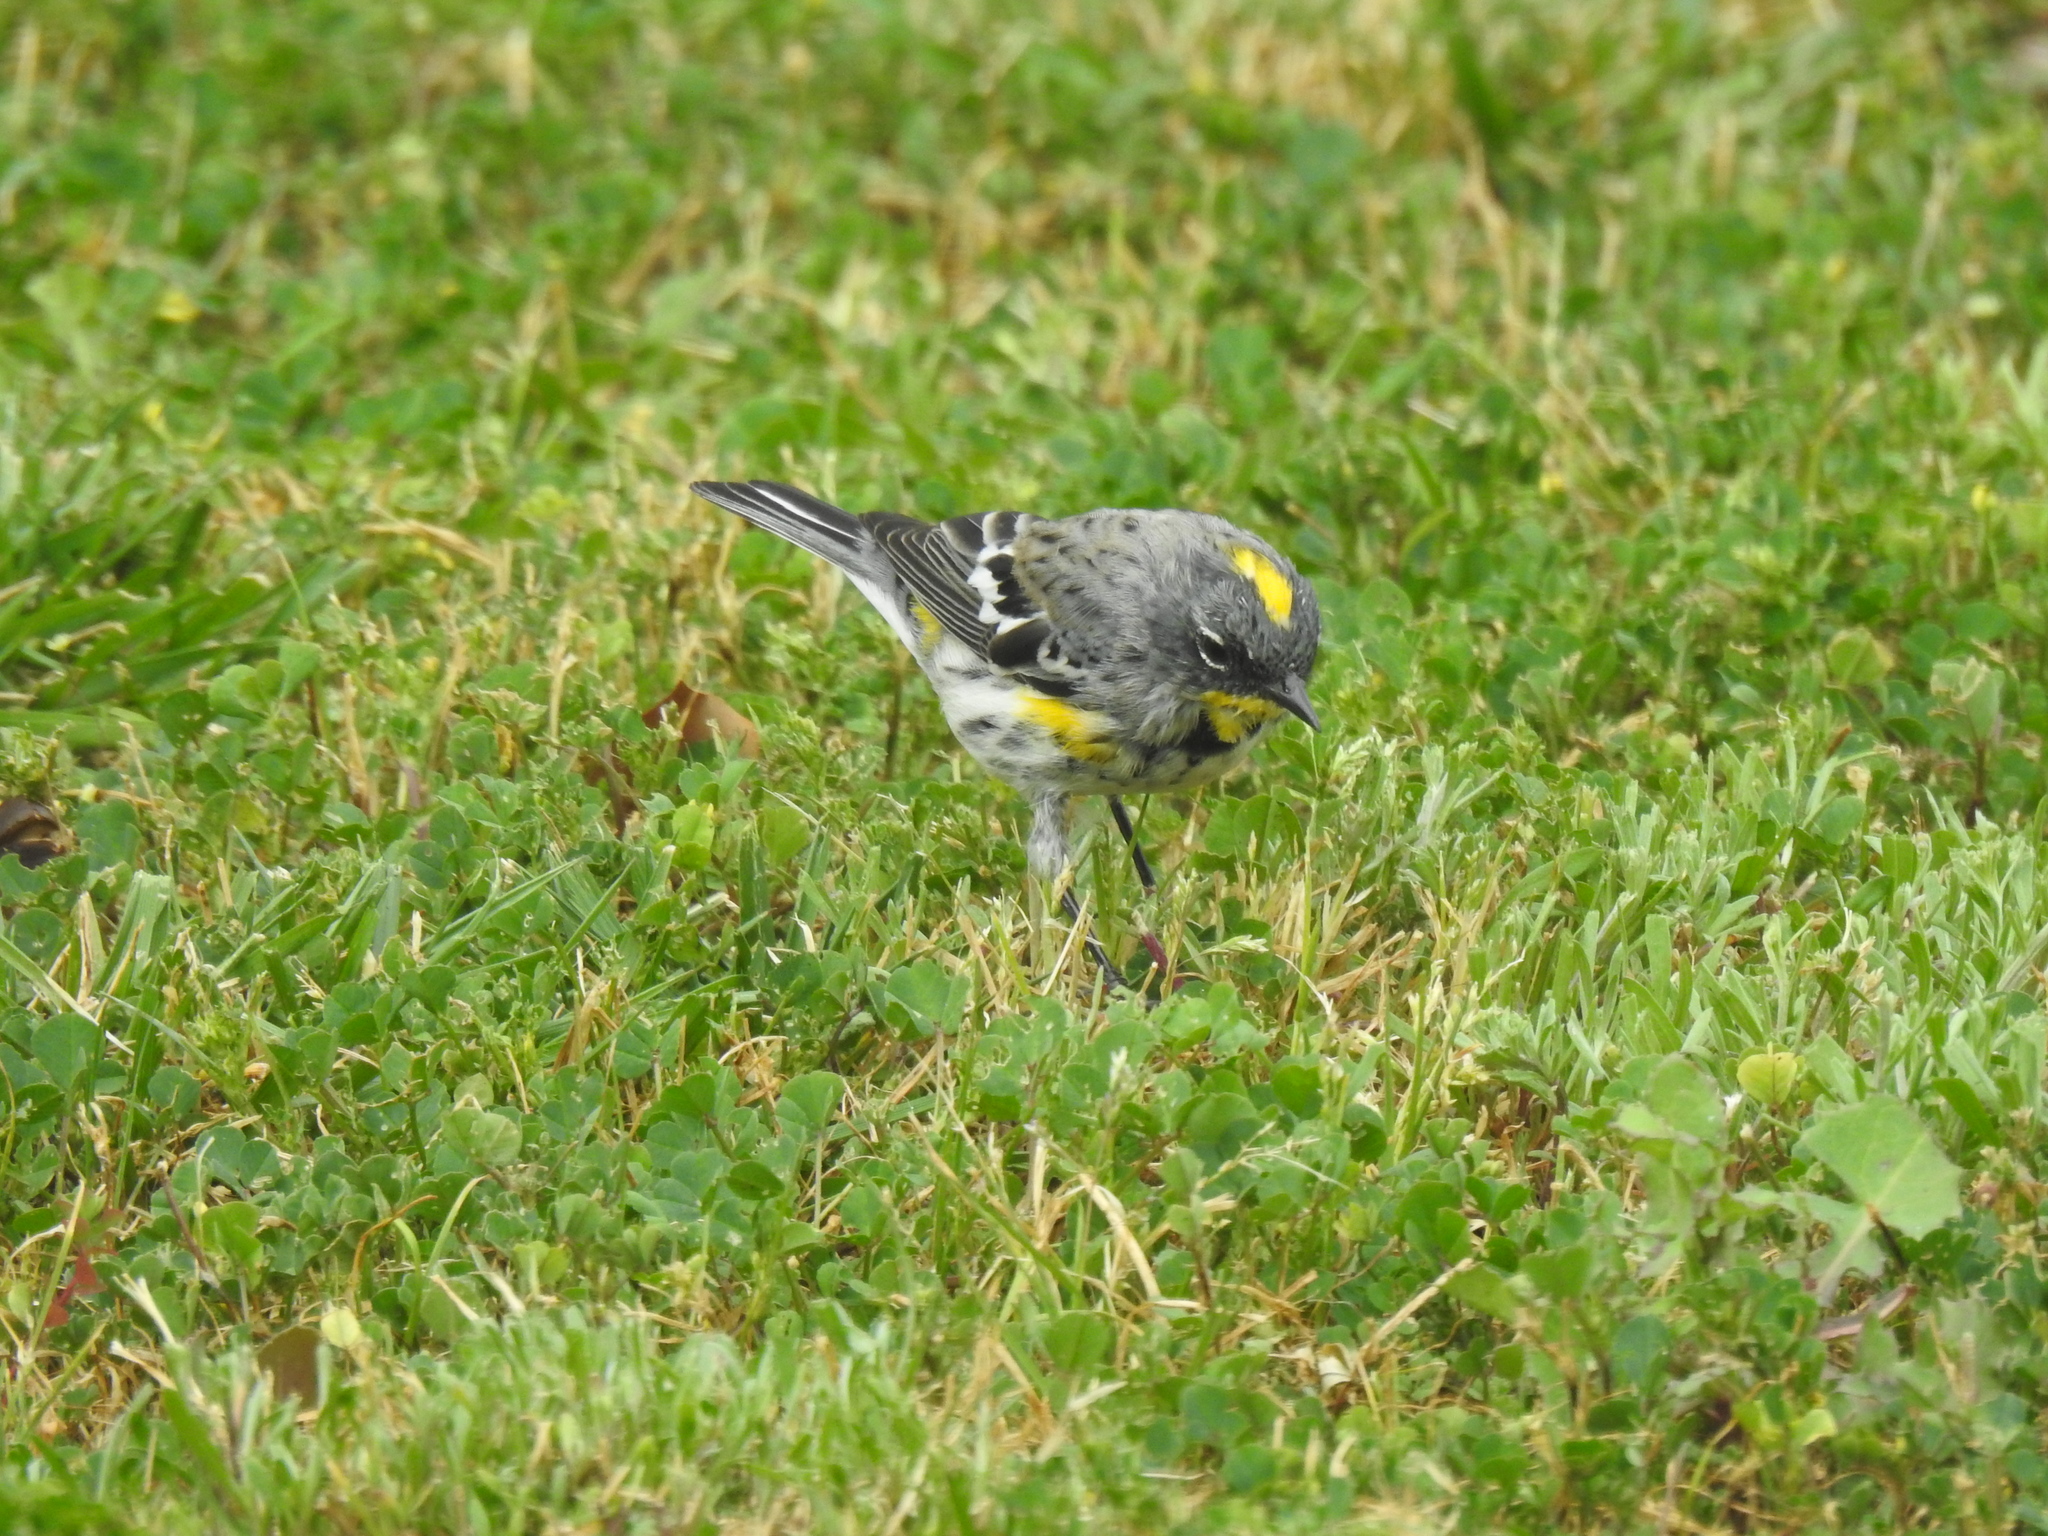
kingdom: Animalia
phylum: Chordata
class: Aves
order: Passeriformes
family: Parulidae
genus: Setophaga
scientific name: Setophaga coronata
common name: Myrtle warbler
